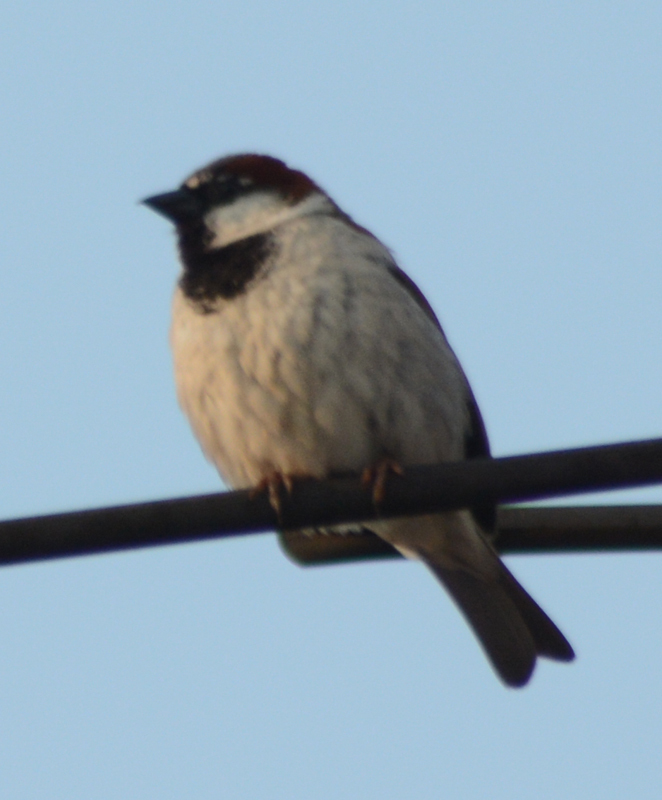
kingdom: Animalia
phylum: Chordata
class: Aves
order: Passeriformes
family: Passeridae
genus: Passer
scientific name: Passer domesticus
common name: House sparrow
